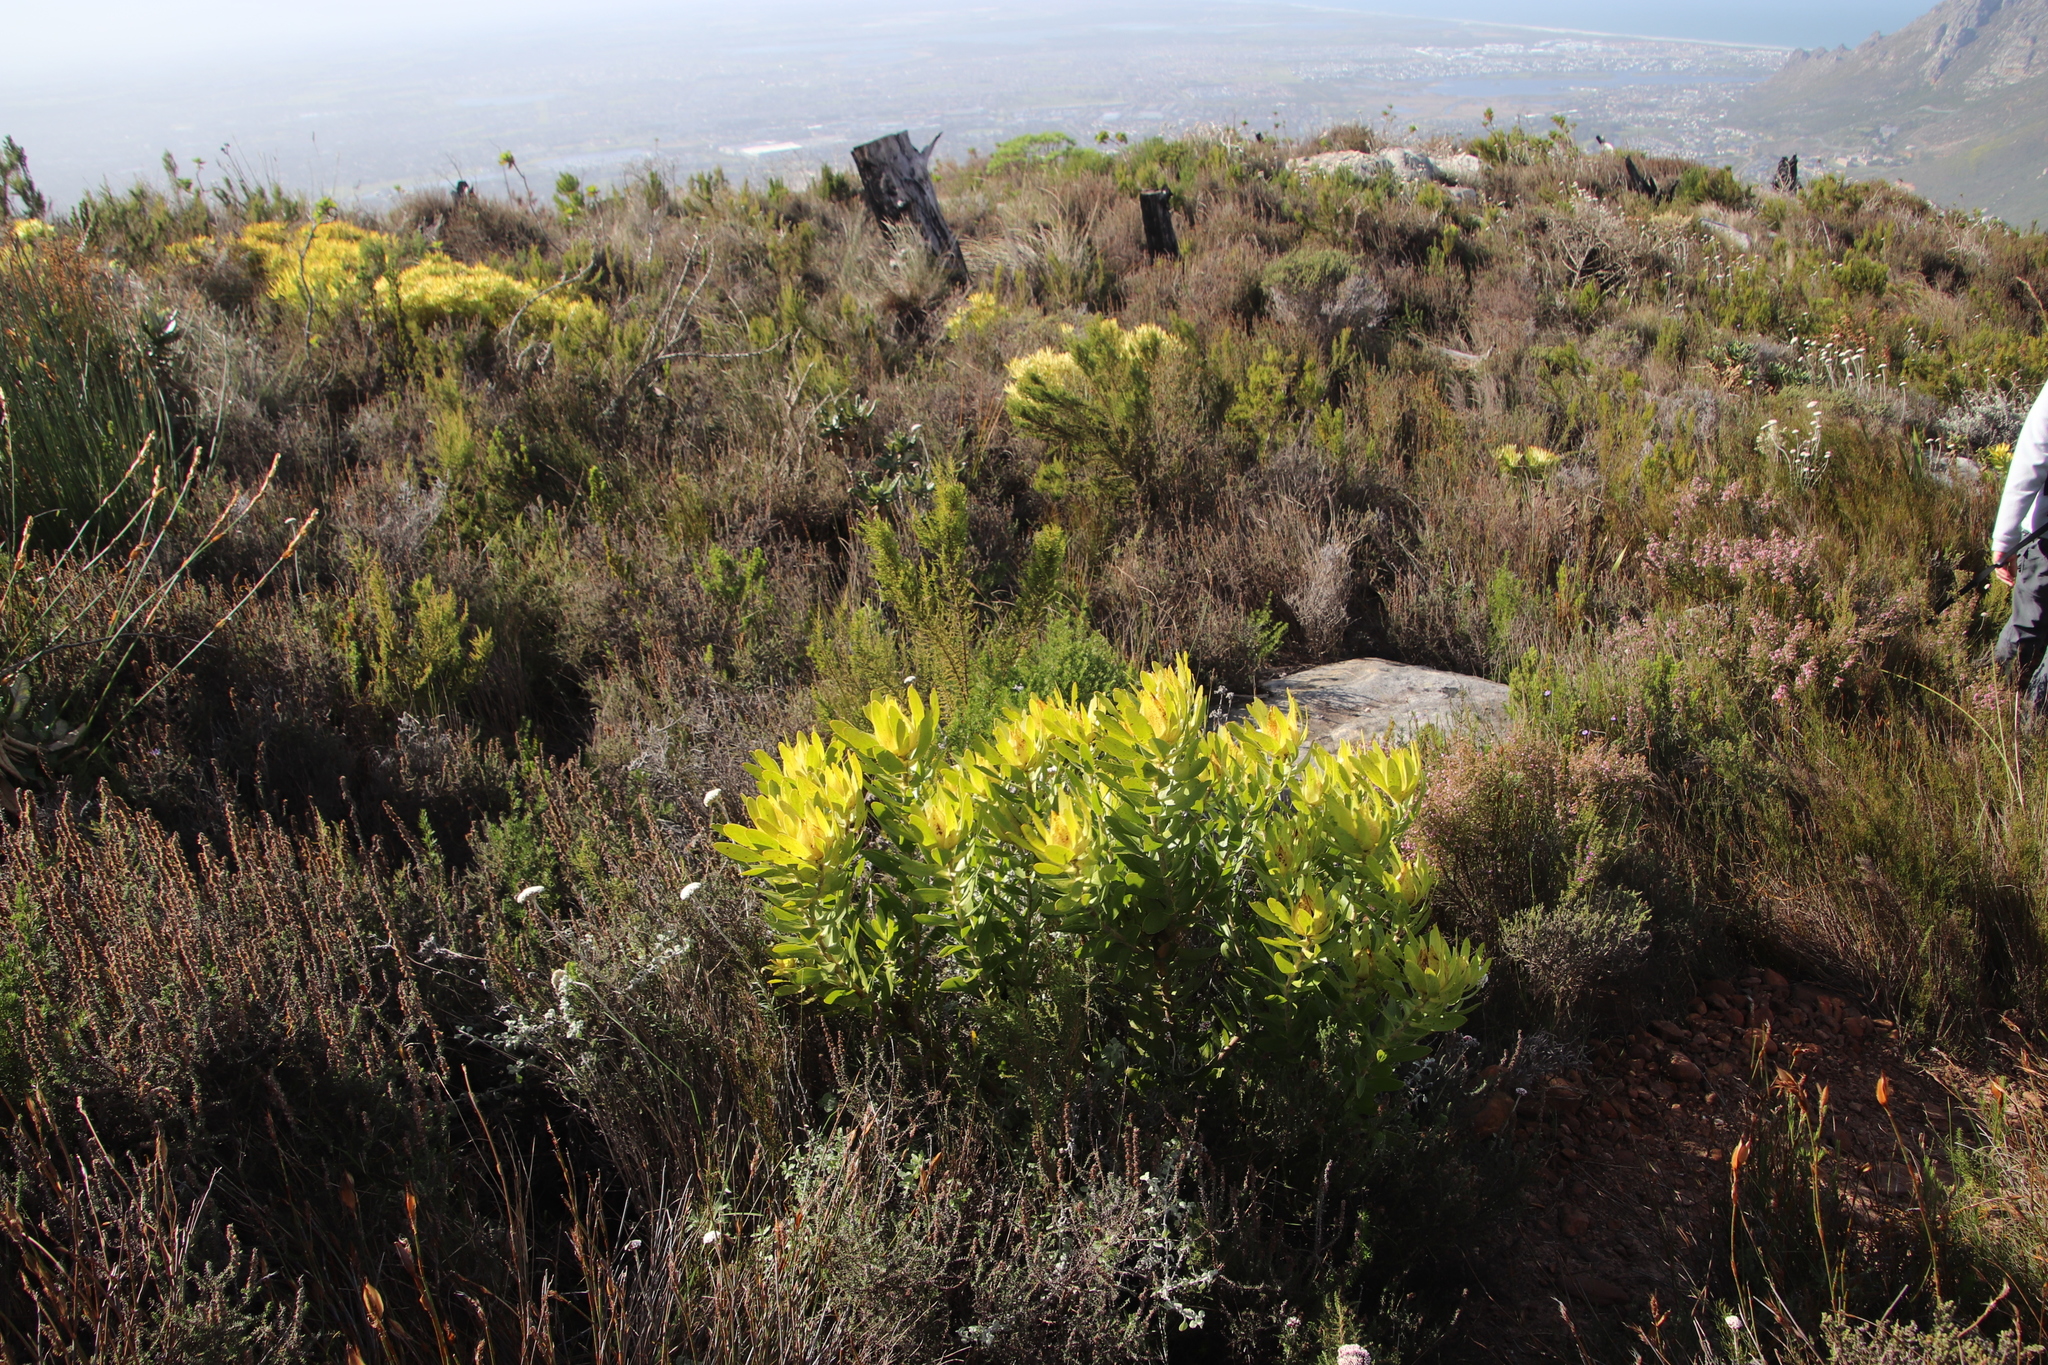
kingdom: Plantae
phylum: Tracheophyta
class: Magnoliopsida
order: Proteales
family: Proteaceae
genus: Leucadendron
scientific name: Leucadendron laureolum
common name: Golden sunshinebush
